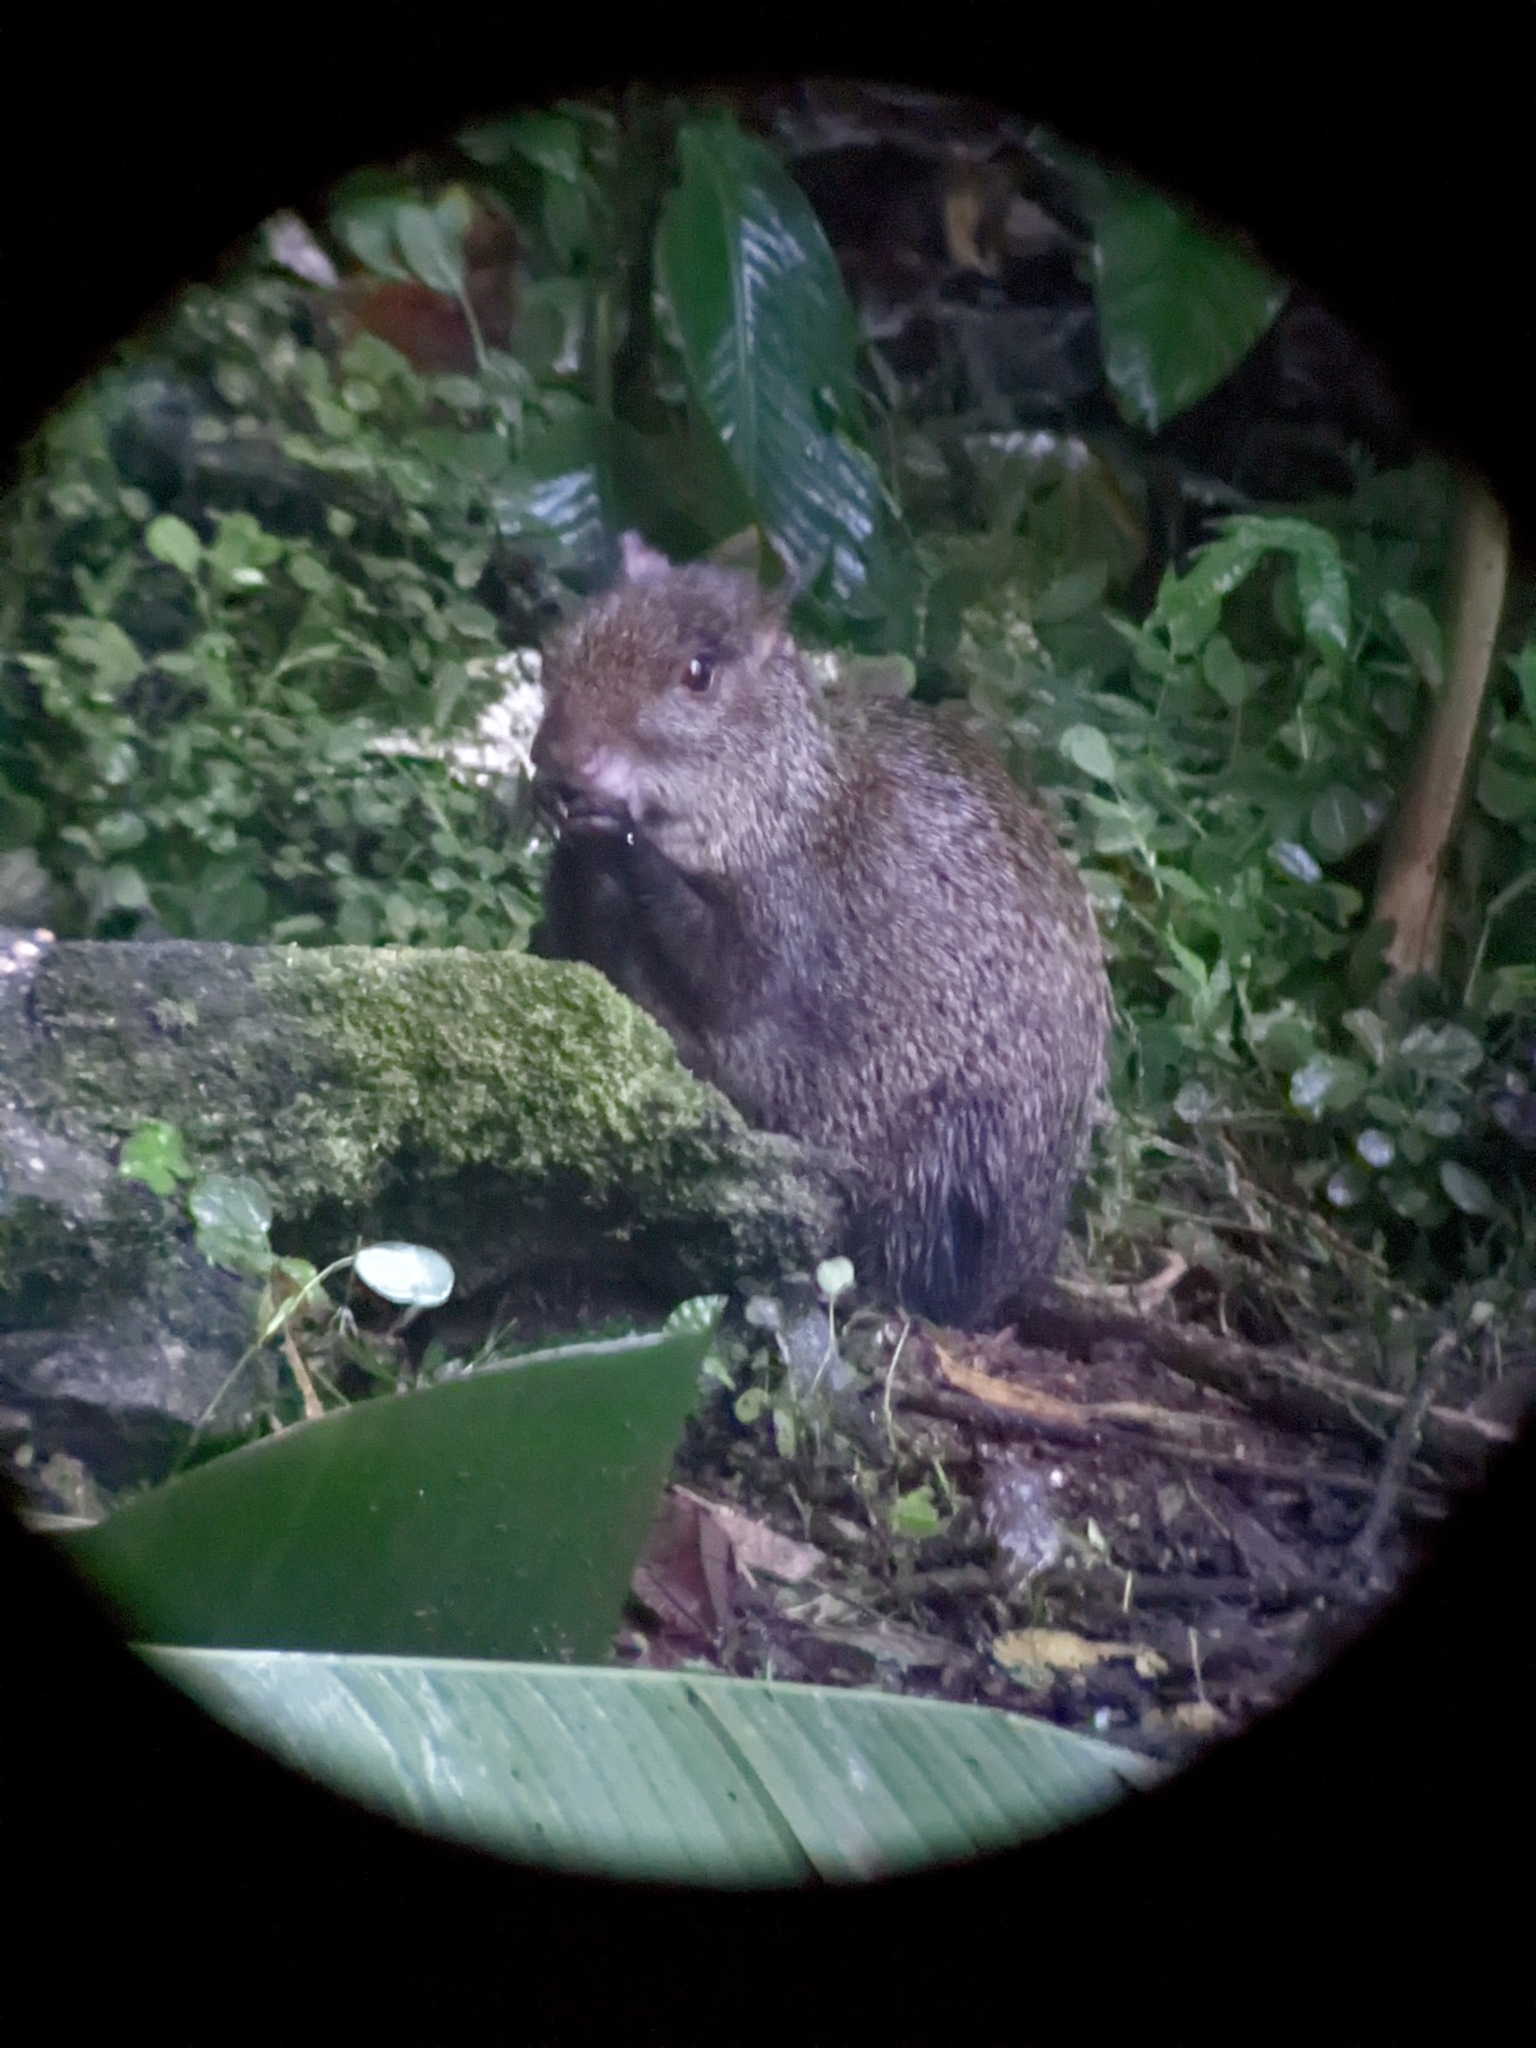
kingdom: Animalia
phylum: Chordata
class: Mammalia
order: Rodentia
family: Dasyproctidae
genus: Dasyprocta
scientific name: Dasyprocta punctata
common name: Central american agouti
